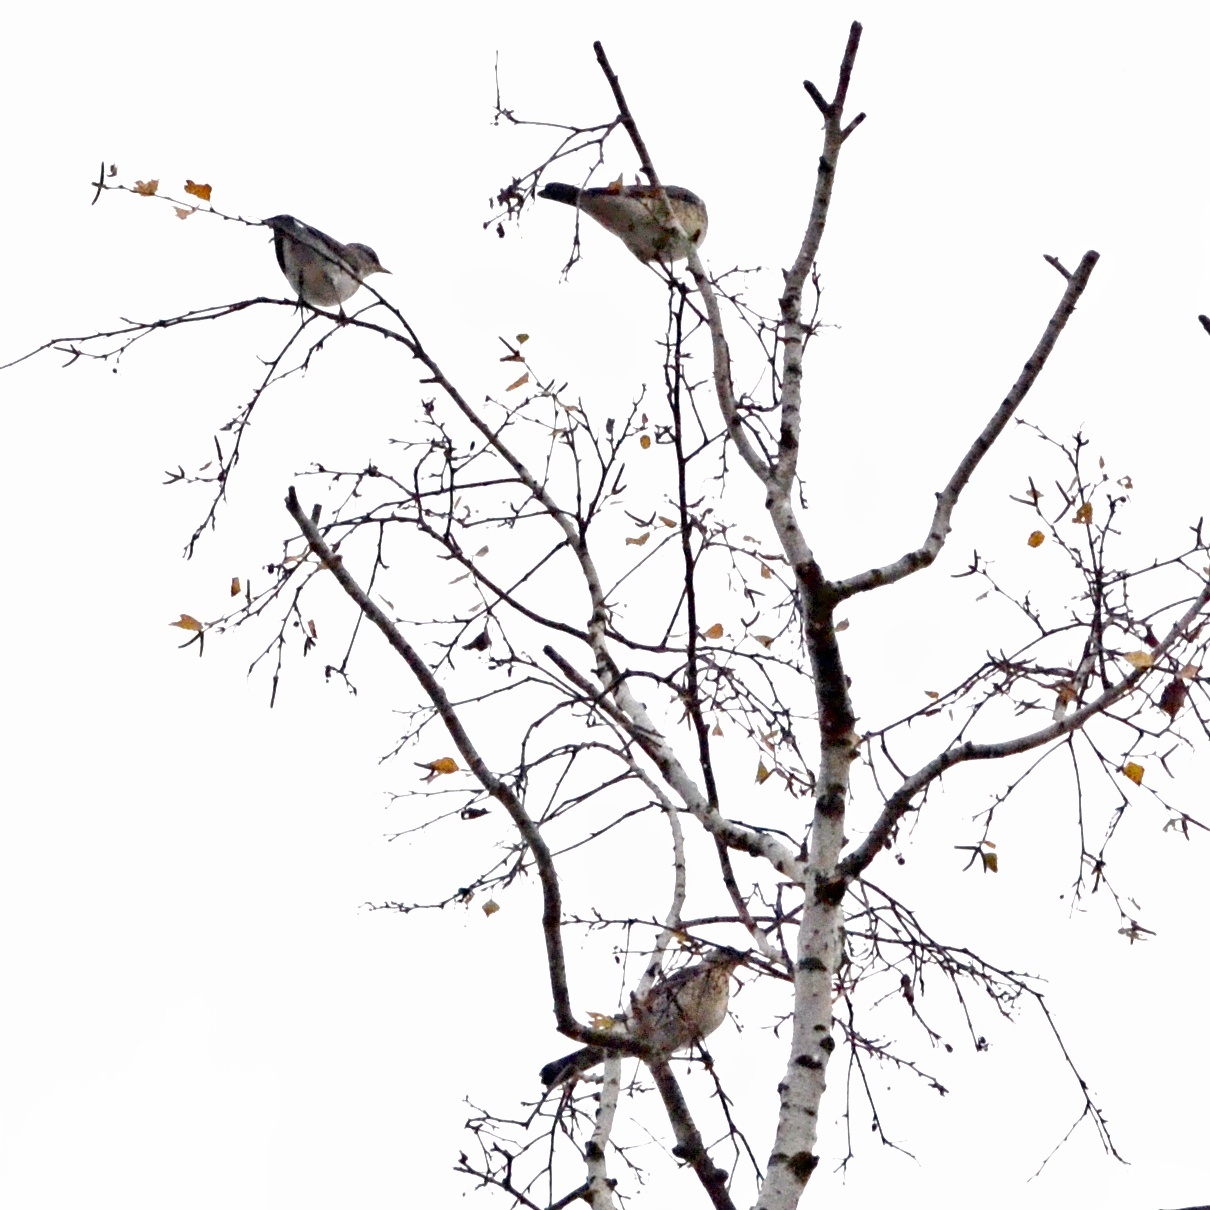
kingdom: Animalia
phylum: Chordata
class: Aves
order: Passeriformes
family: Turdidae
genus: Turdus
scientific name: Turdus pilaris
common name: Fieldfare
